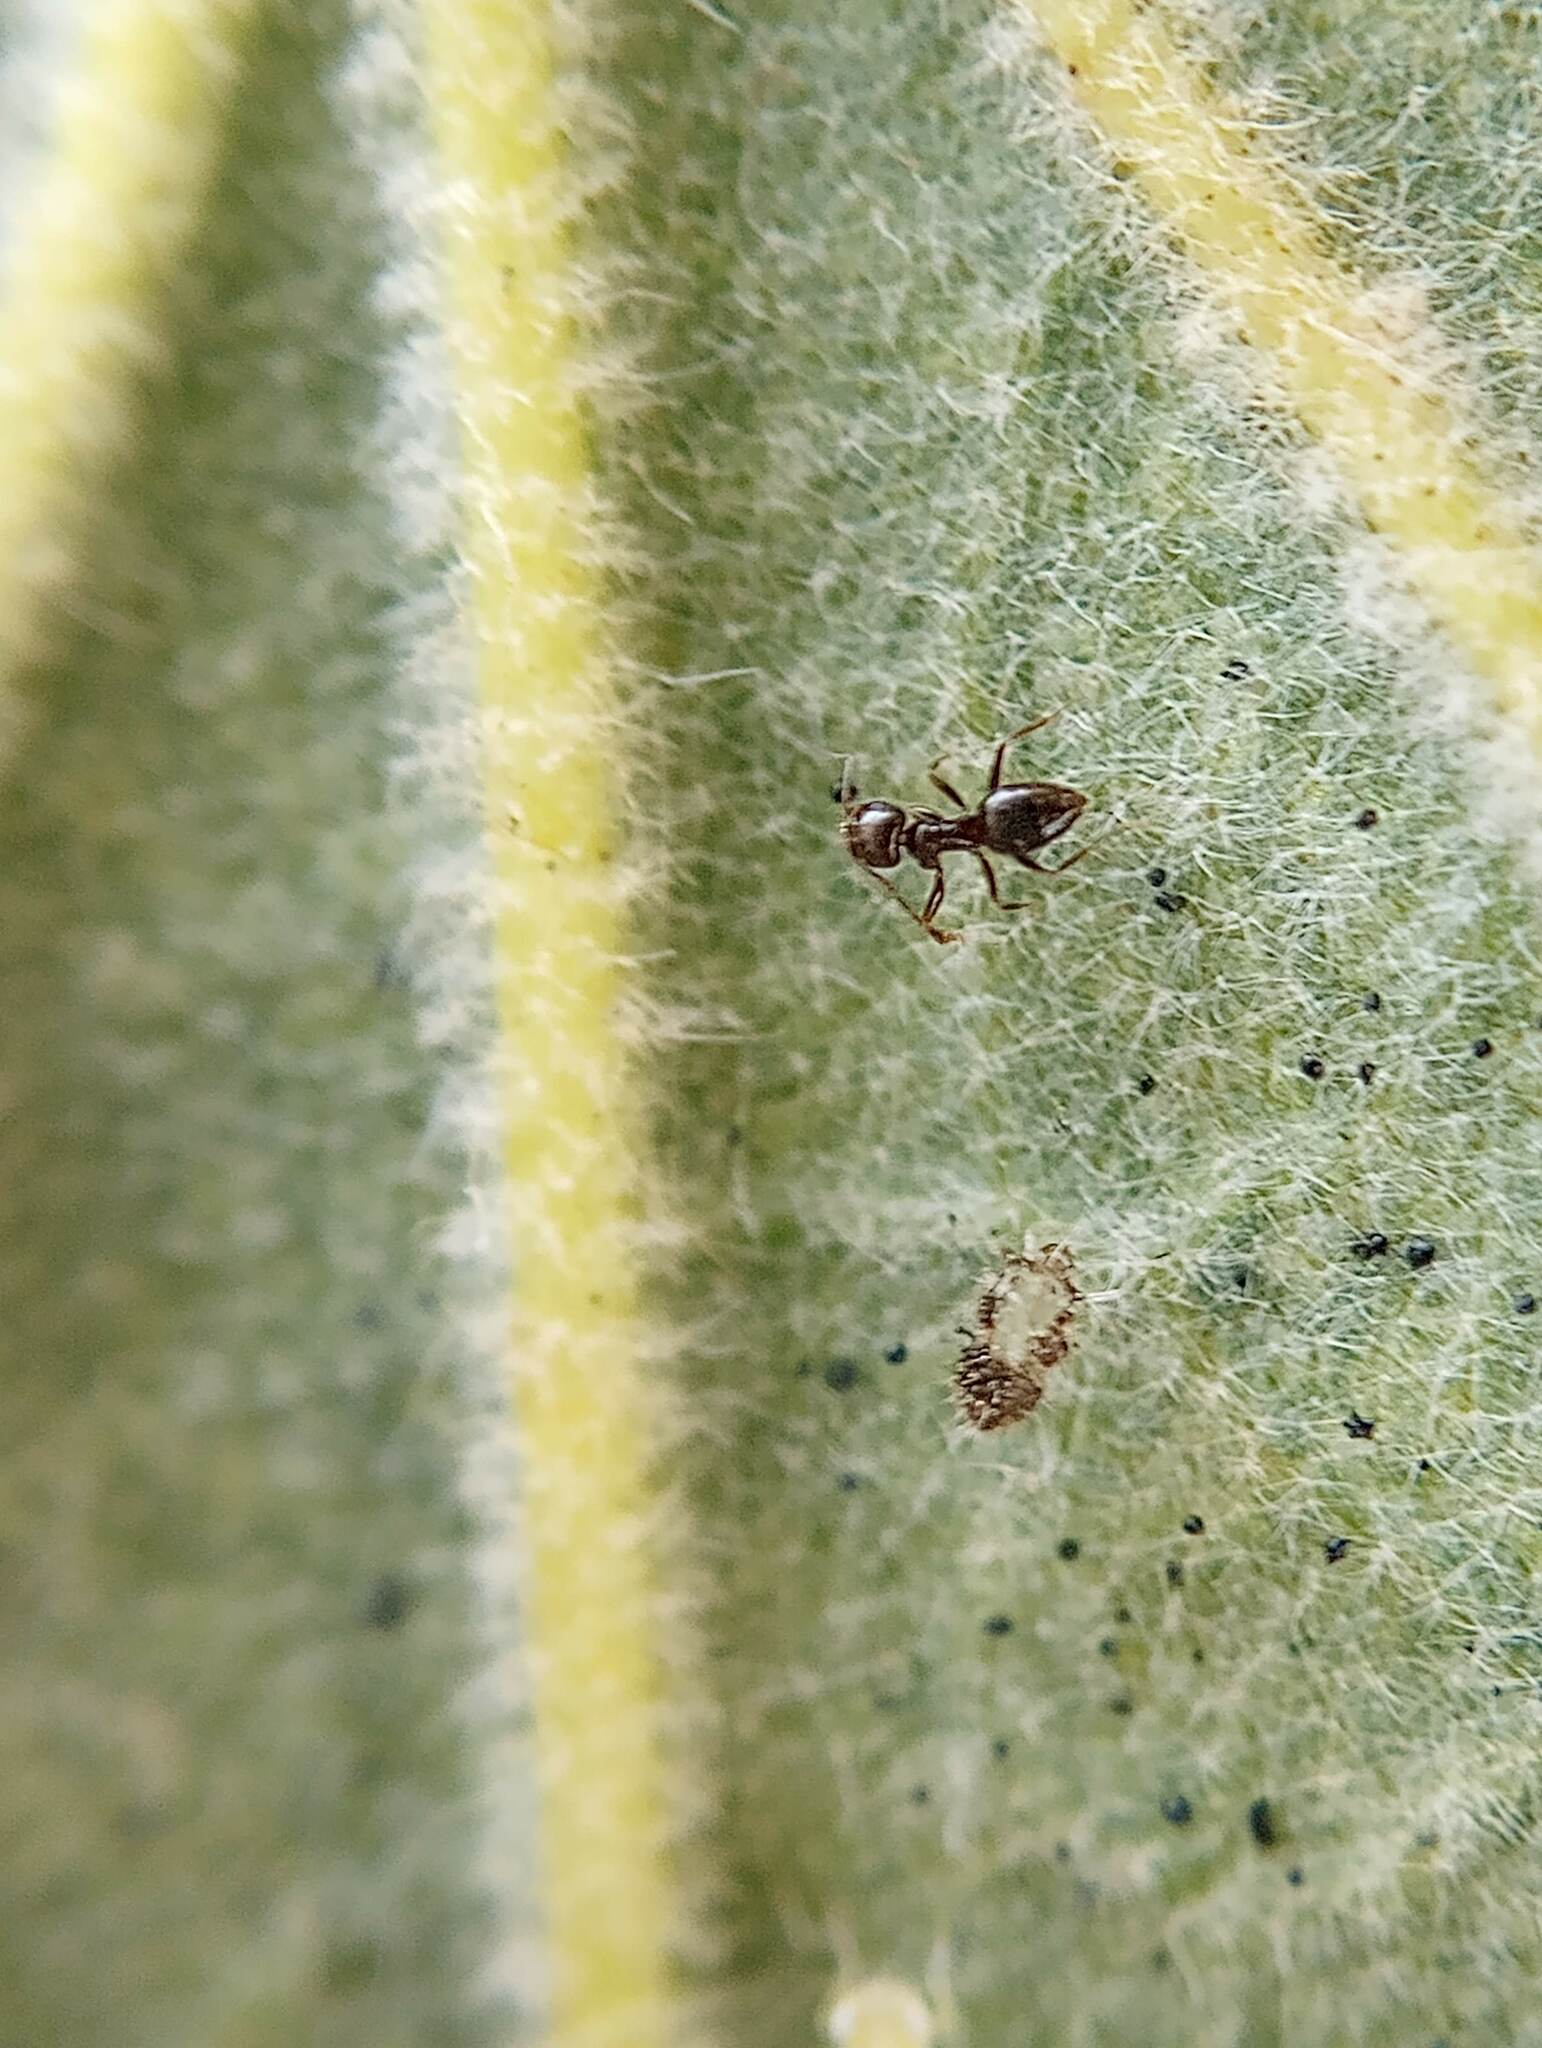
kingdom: Animalia
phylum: Arthropoda
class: Insecta
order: Hymenoptera
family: Formicidae
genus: Brachymyrmex
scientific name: Brachymyrmex patagonicus
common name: Dark rover ant
